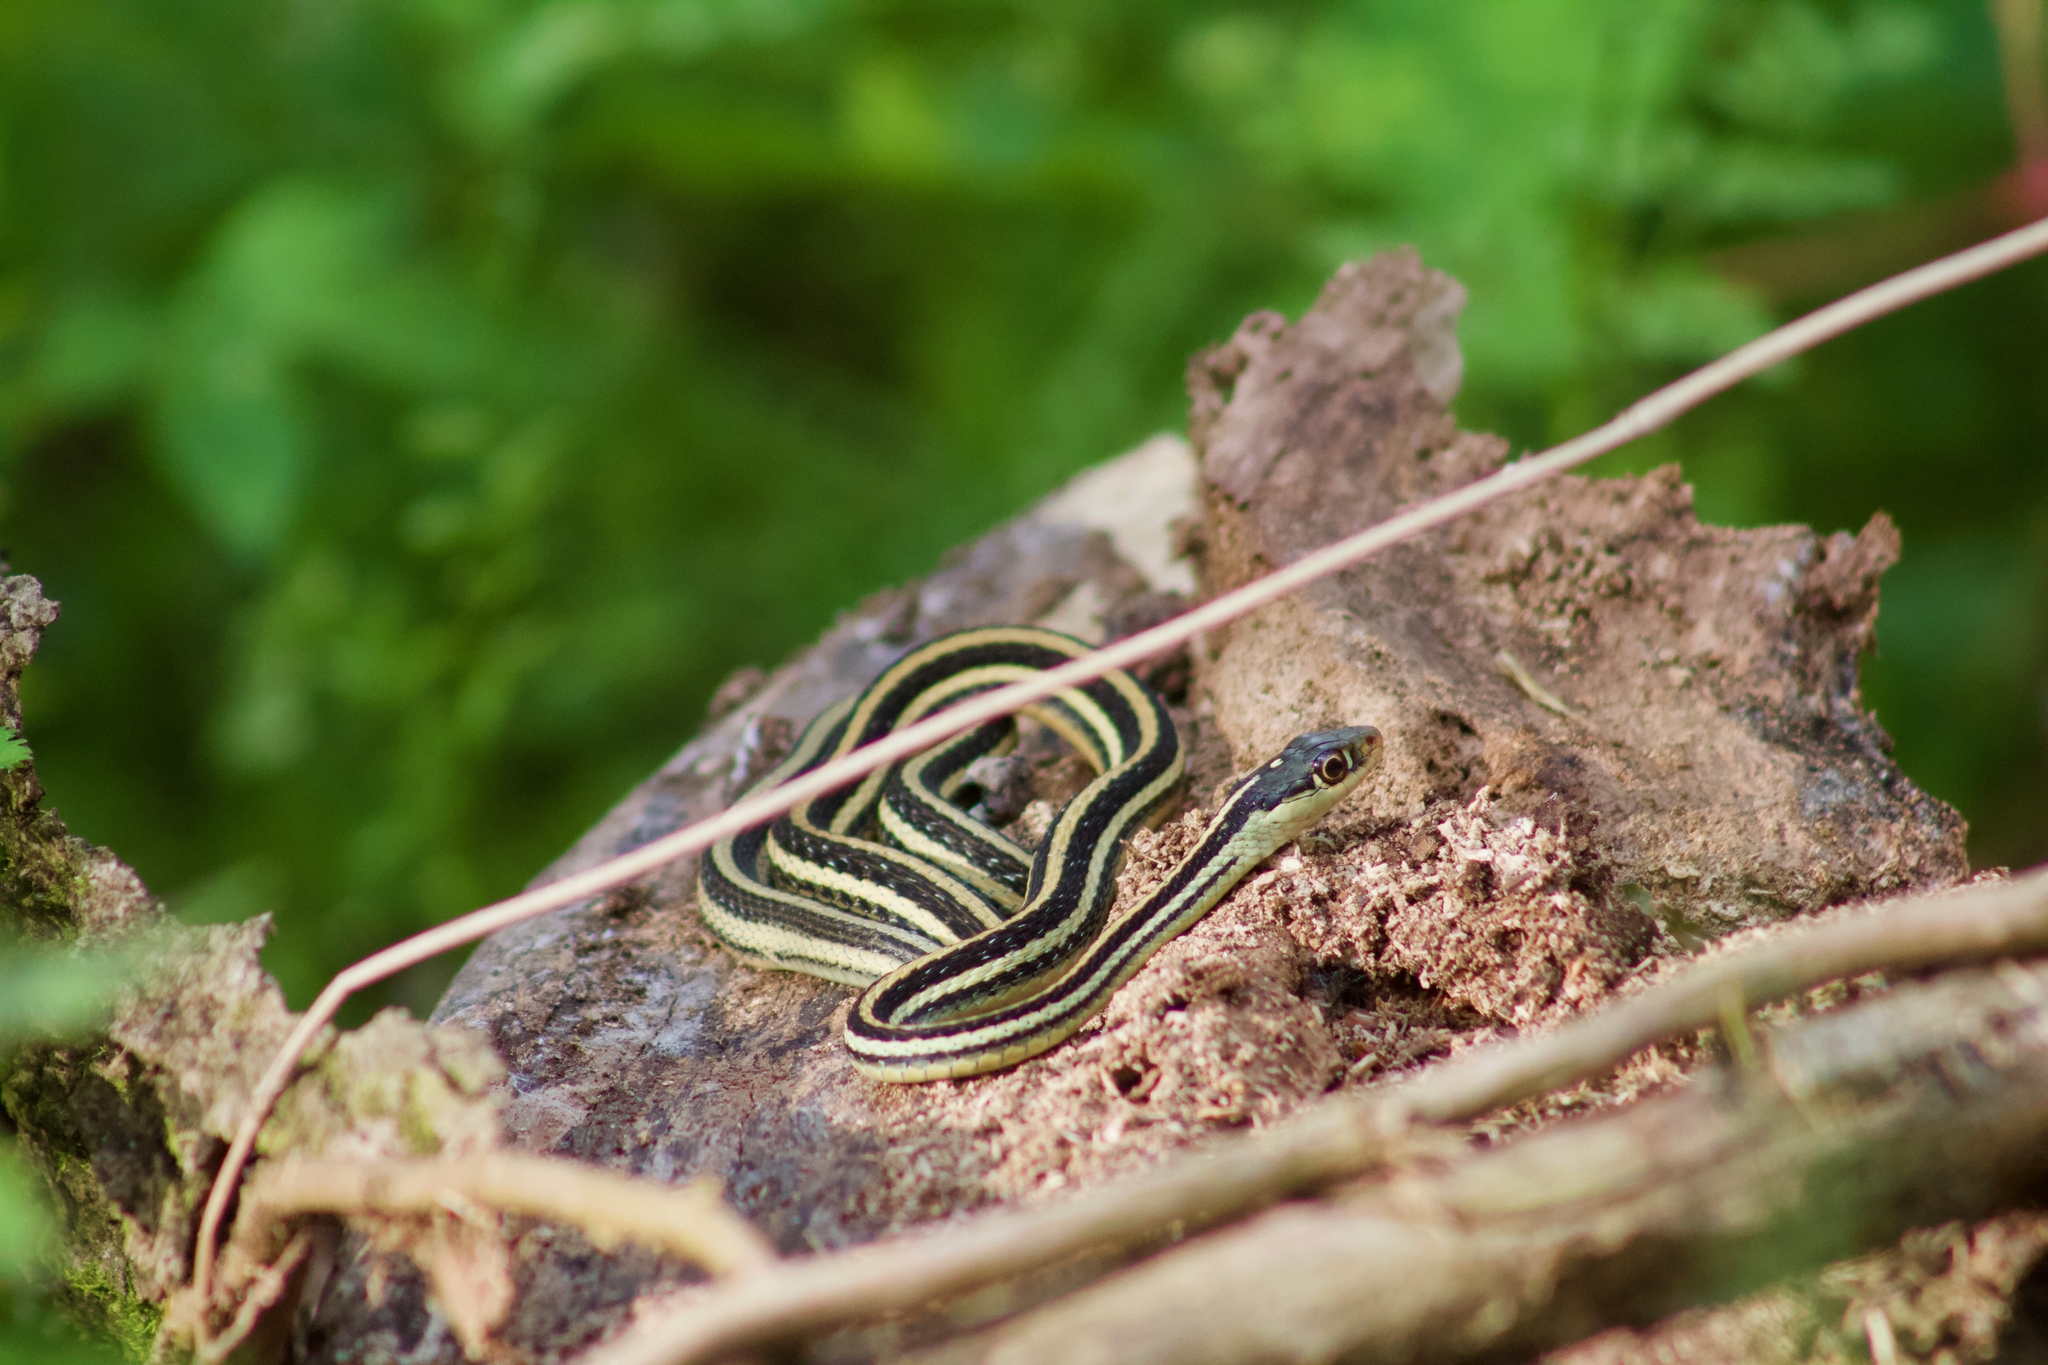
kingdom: Animalia
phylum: Chordata
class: Squamata
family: Colubridae
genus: Thamnophis
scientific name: Thamnophis proximus
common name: Western ribbon snake
